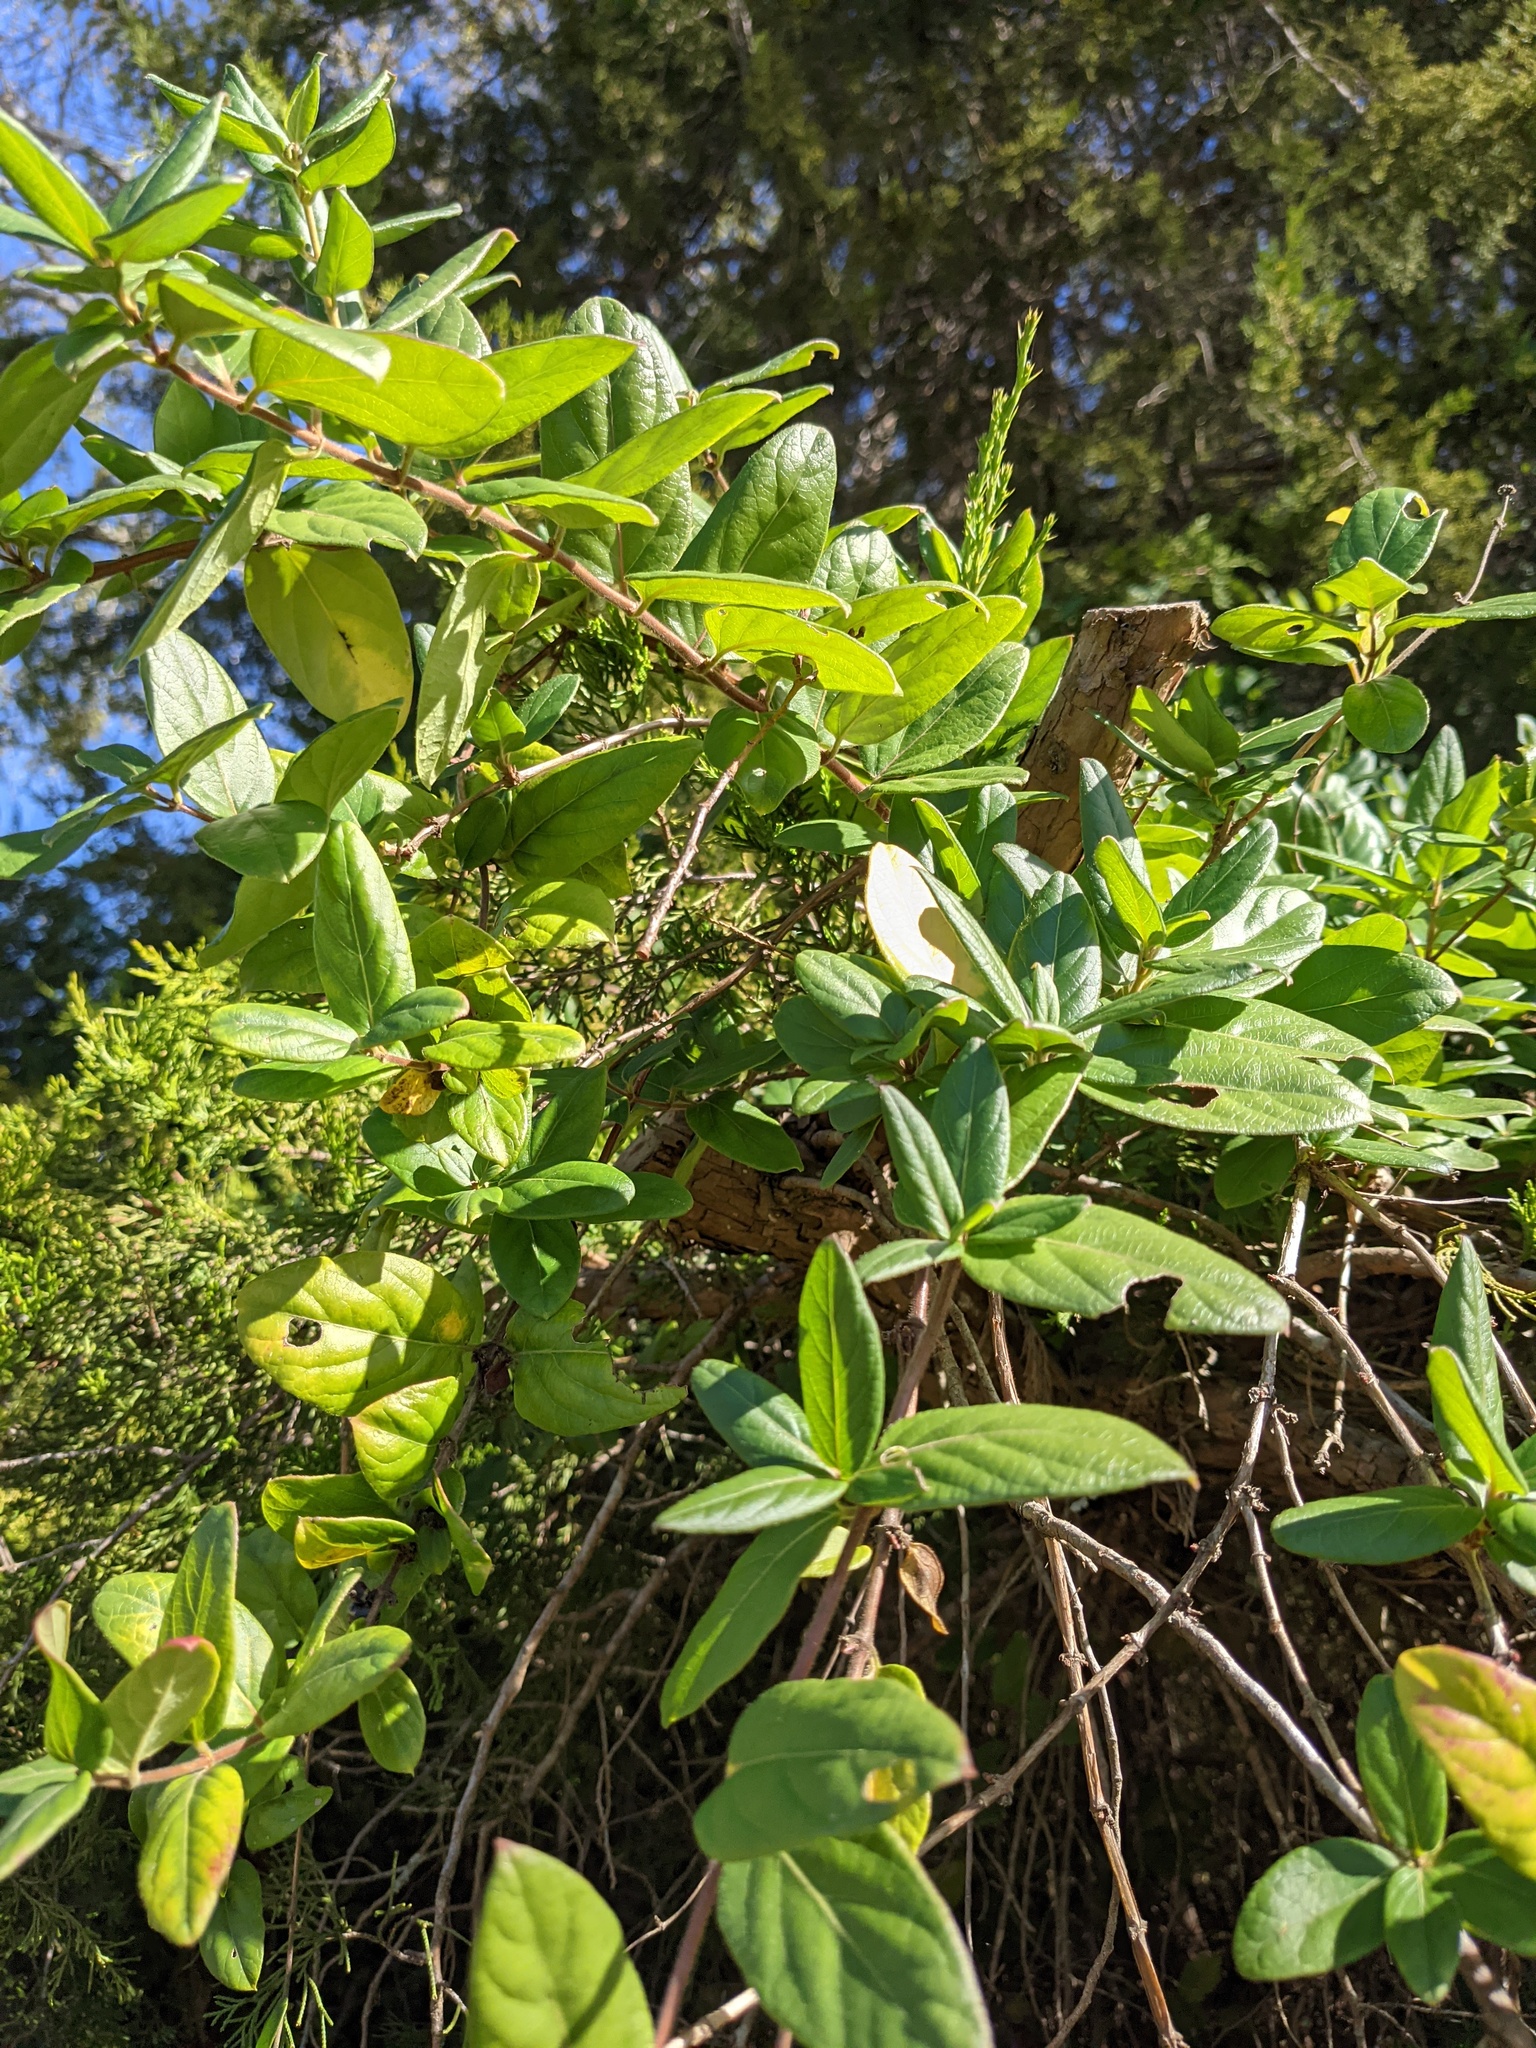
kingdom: Plantae
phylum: Tracheophyta
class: Magnoliopsida
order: Dipsacales
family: Caprifoliaceae
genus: Lonicera
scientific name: Lonicera japonica
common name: Japanese honeysuckle
